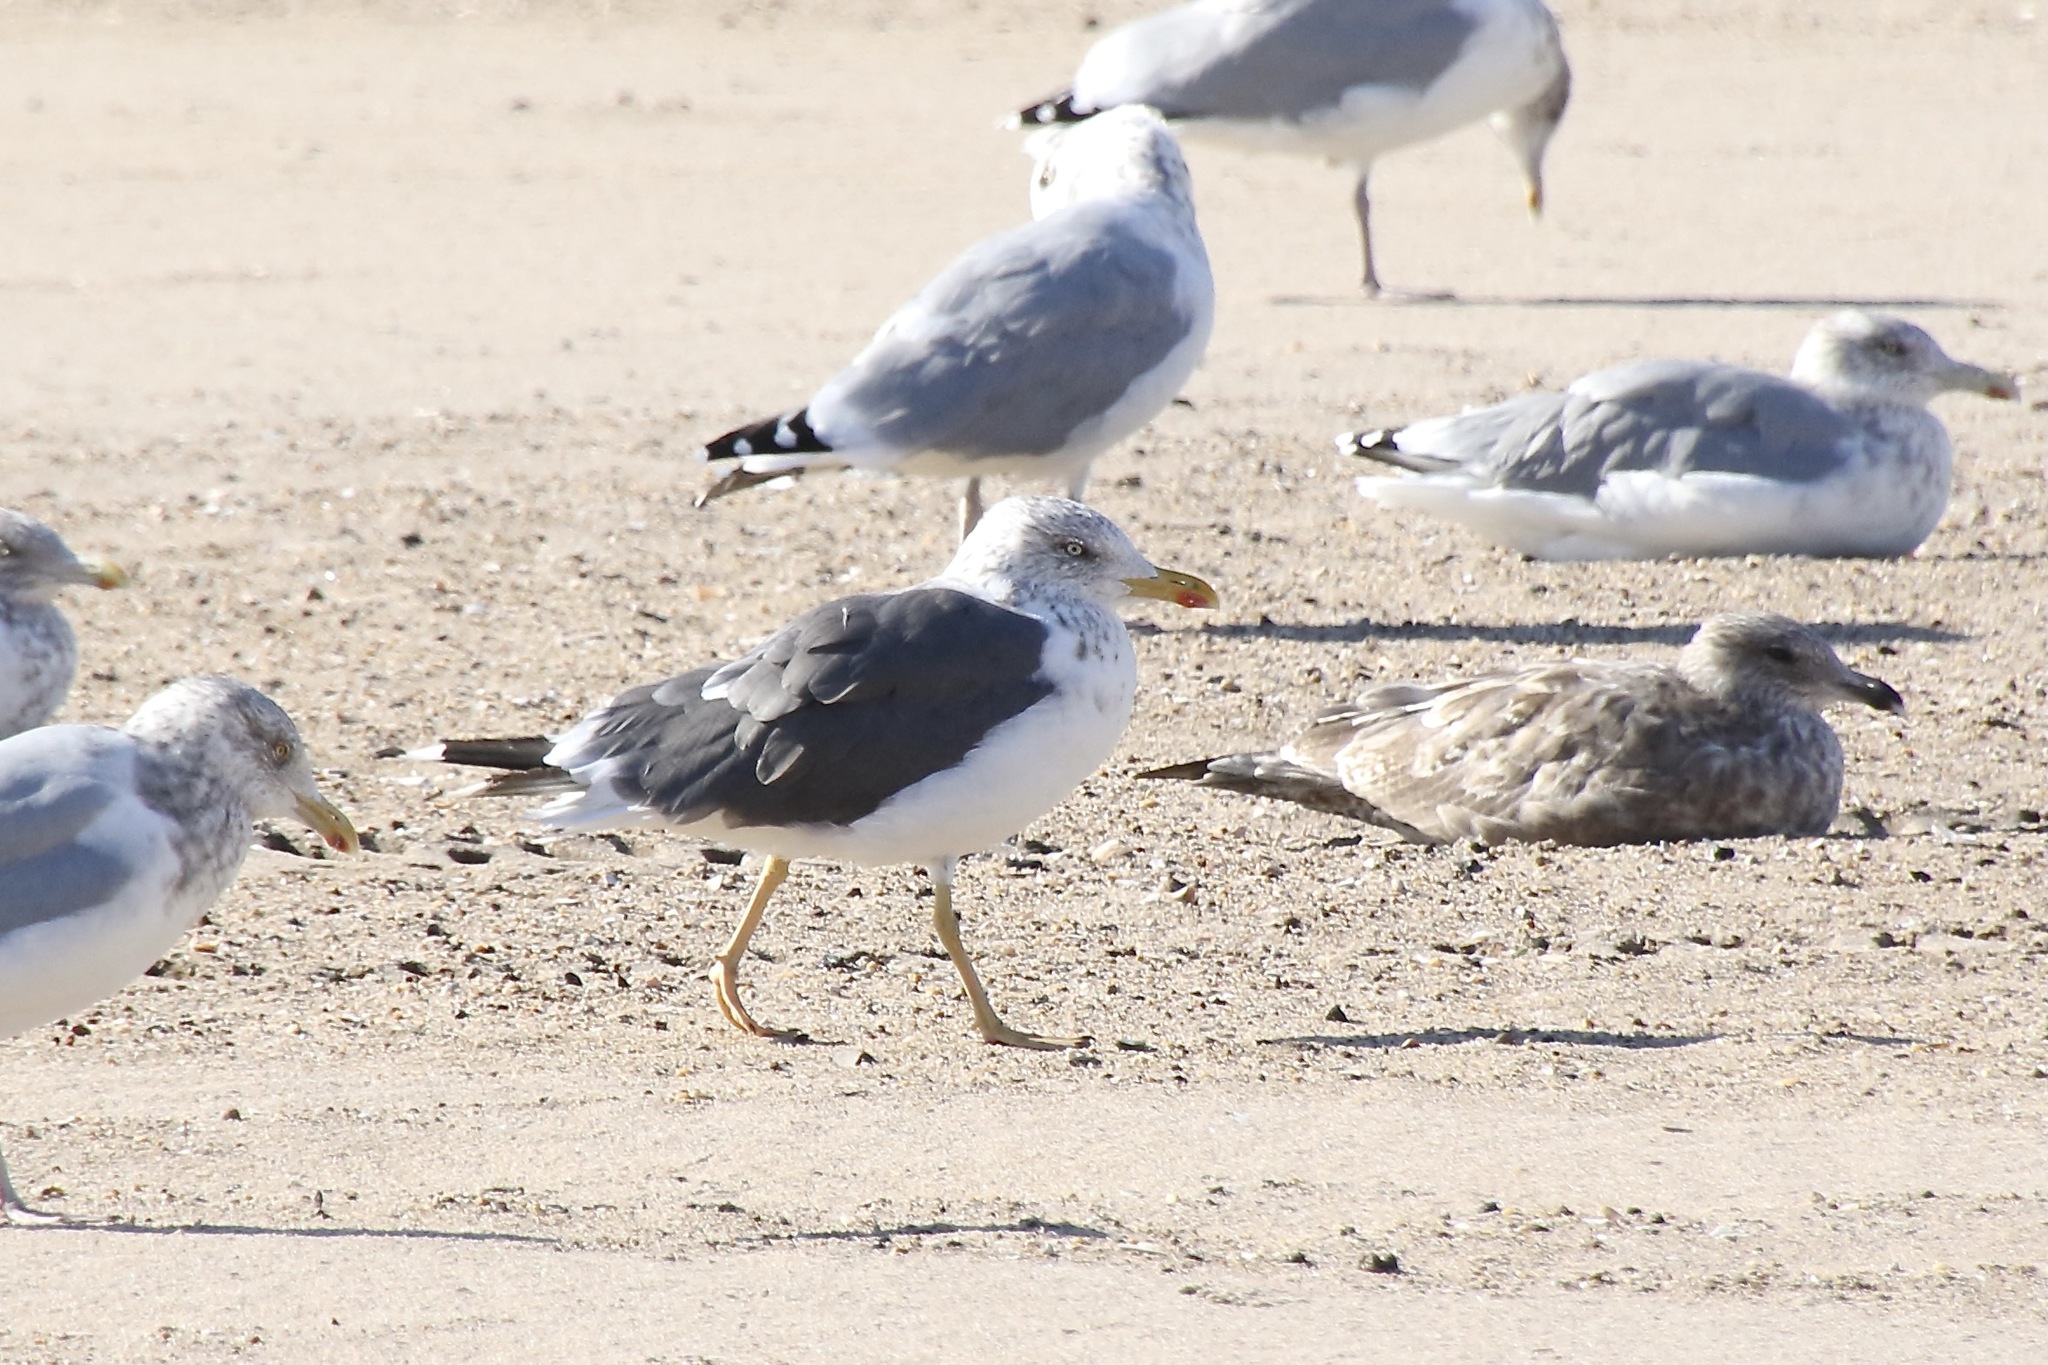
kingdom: Animalia
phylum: Chordata
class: Aves
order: Charadriiformes
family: Laridae
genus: Larus
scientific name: Larus fuscus
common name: Lesser black-backed gull
